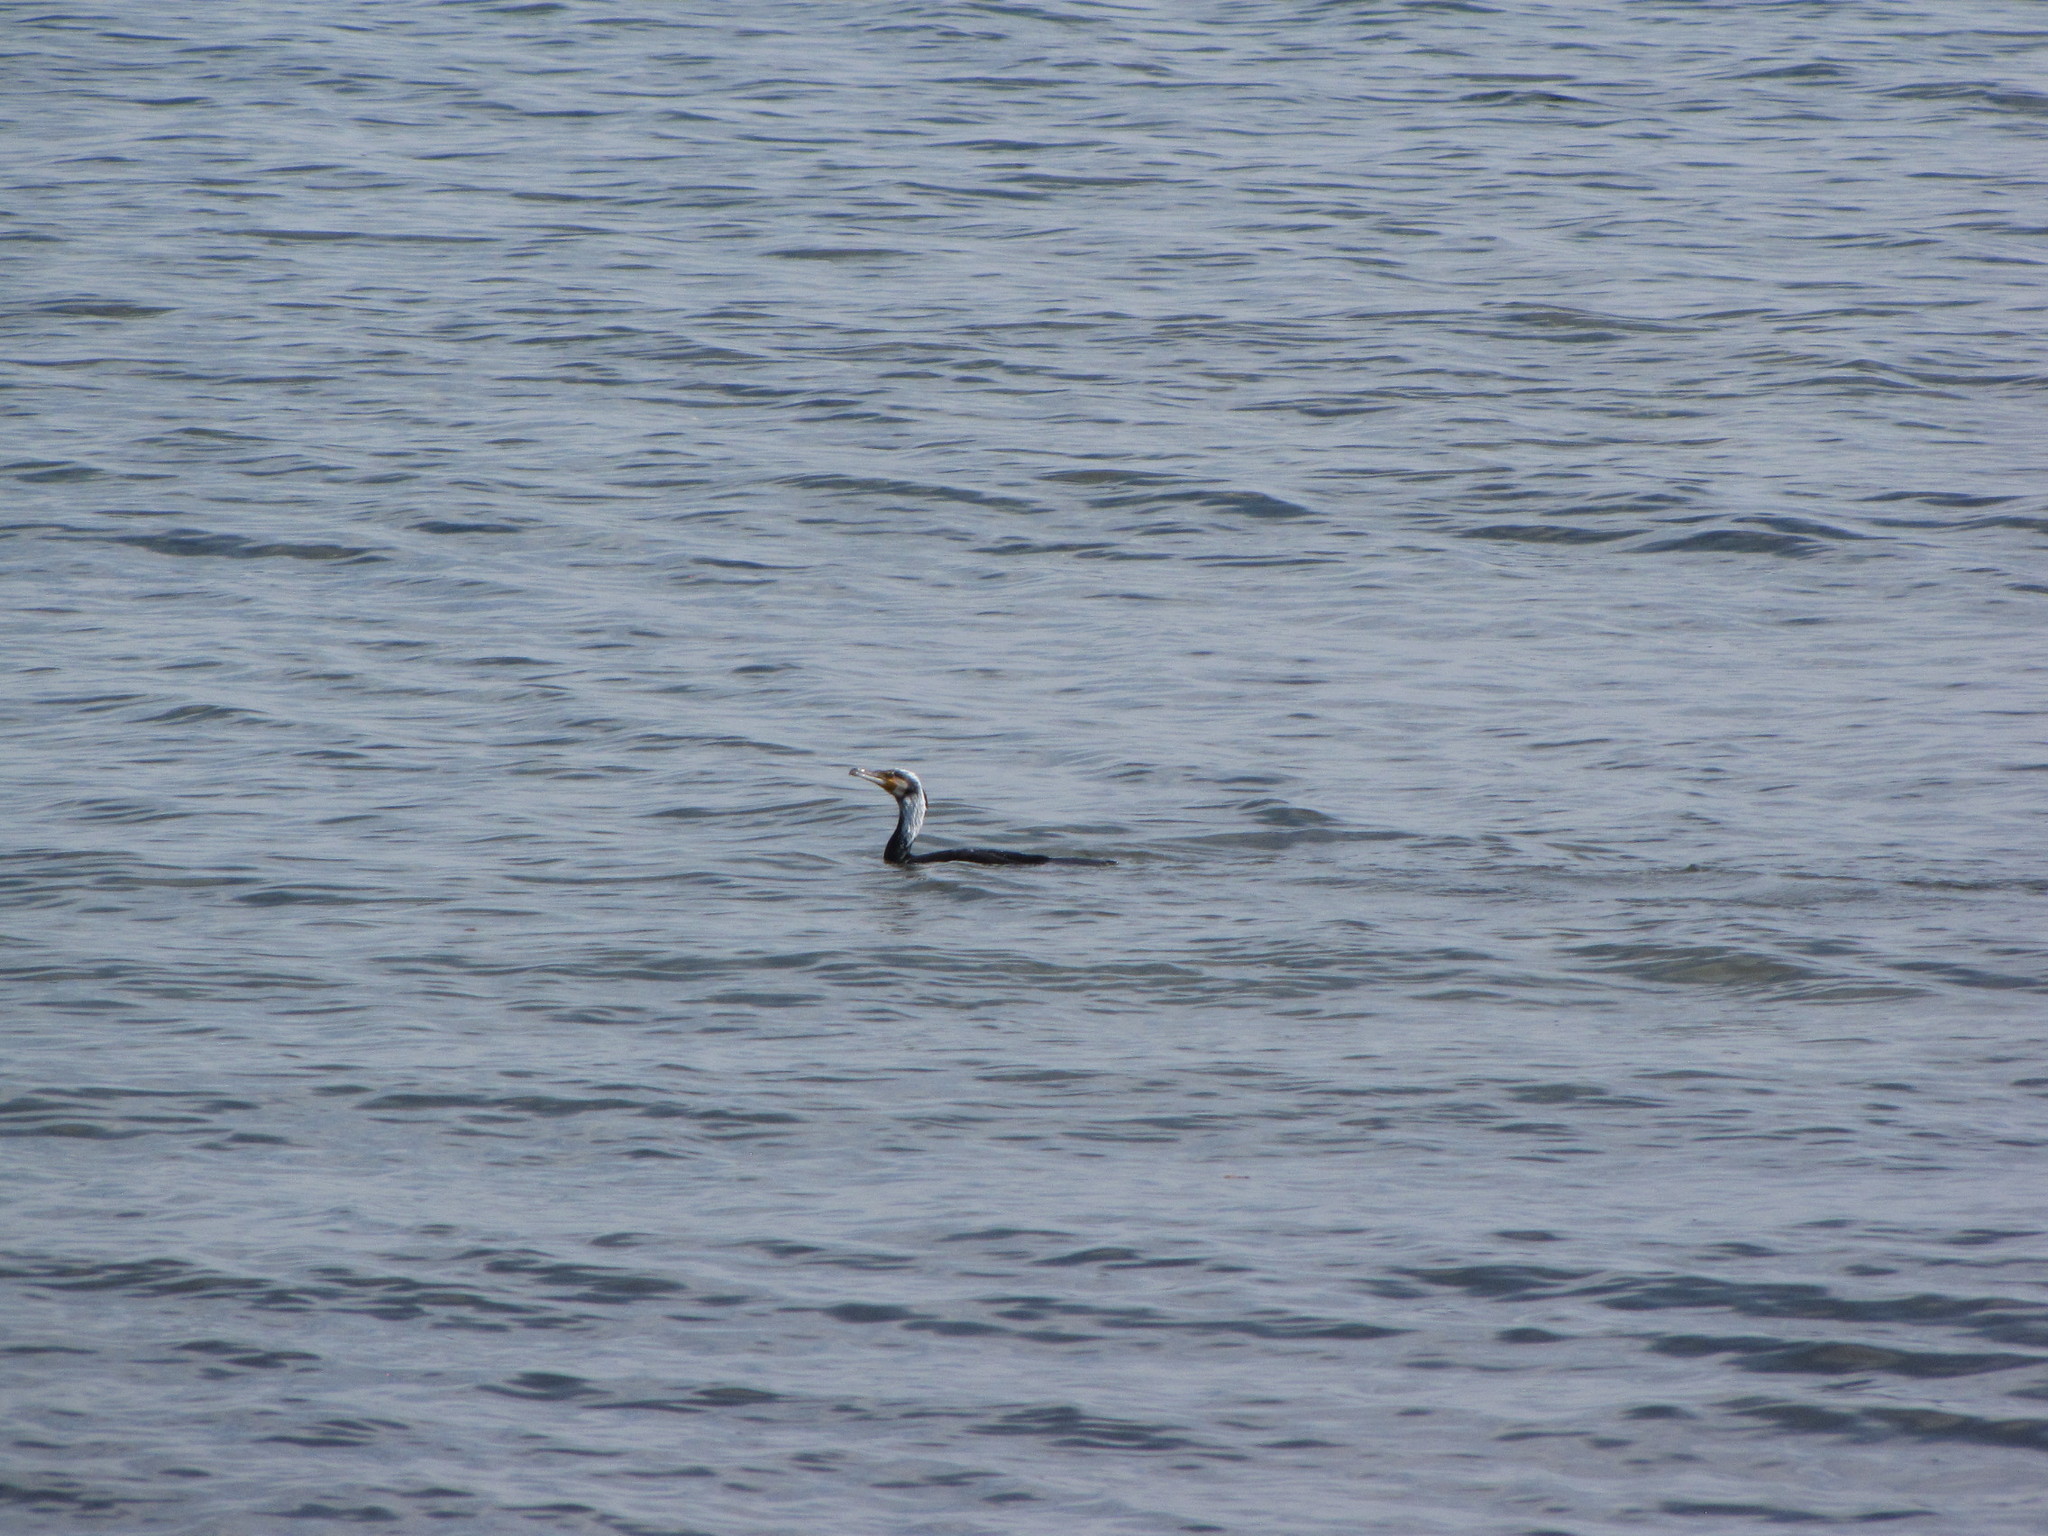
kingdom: Animalia
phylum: Chordata
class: Aves
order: Suliformes
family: Phalacrocoracidae
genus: Phalacrocorax
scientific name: Phalacrocorax carbo
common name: Great cormorant
